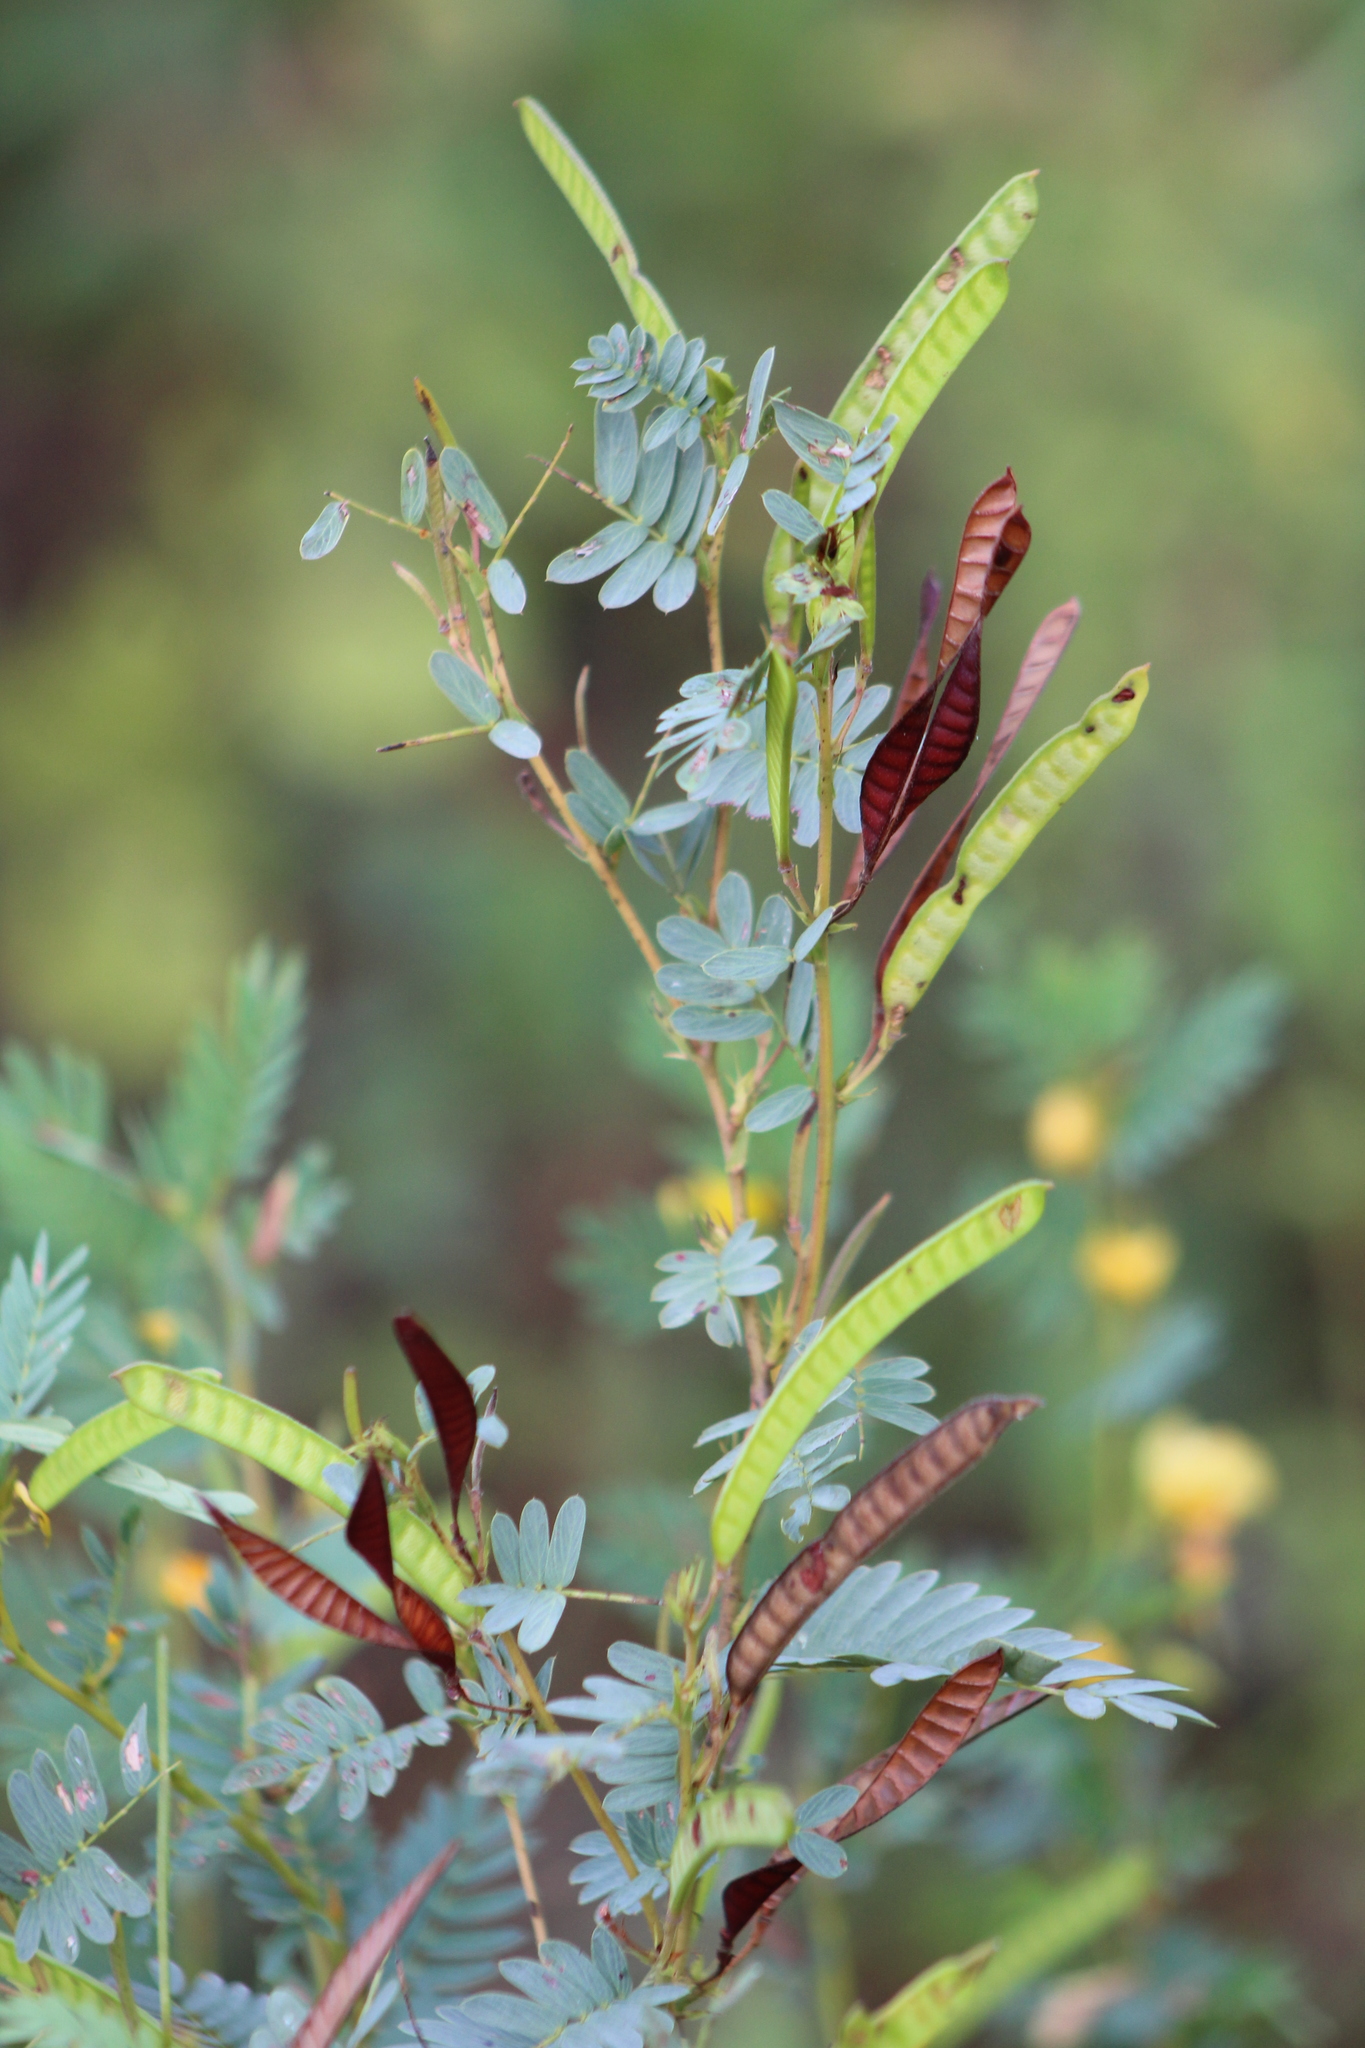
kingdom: Plantae
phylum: Tracheophyta
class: Magnoliopsida
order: Fabales
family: Fabaceae
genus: Chamaecrista
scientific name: Chamaecrista fasciculata
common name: Golden cassia
